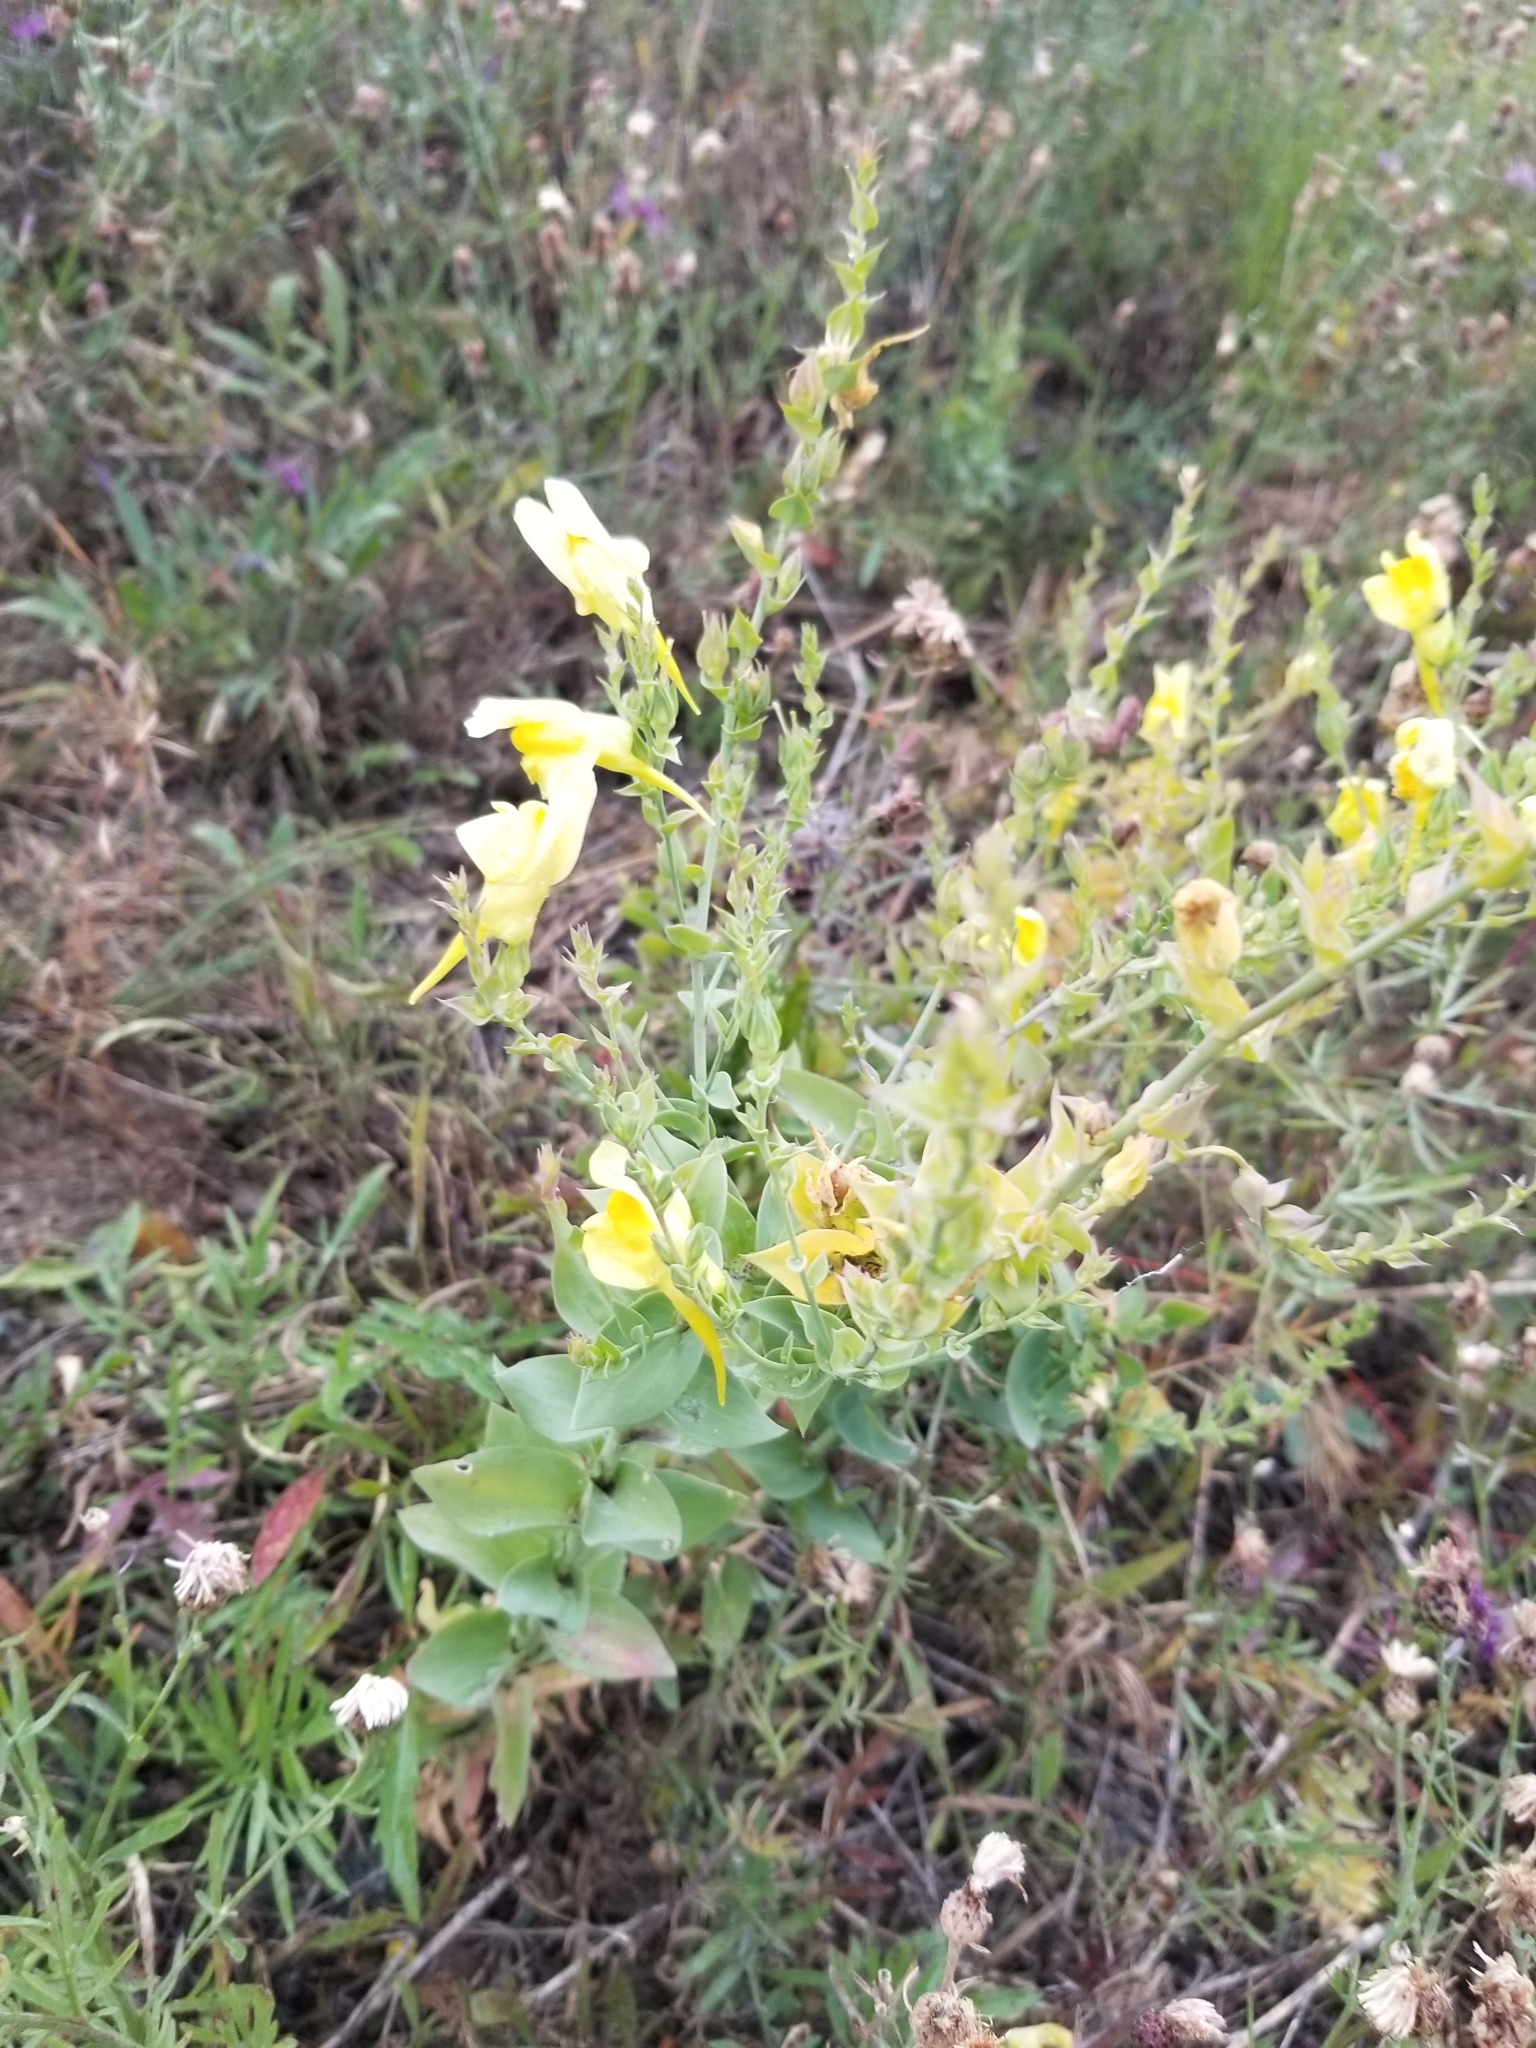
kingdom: Plantae
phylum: Tracheophyta
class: Magnoliopsida
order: Lamiales
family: Plantaginaceae
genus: Linaria
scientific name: Linaria dalmatica
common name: Dalmatian toadflax
